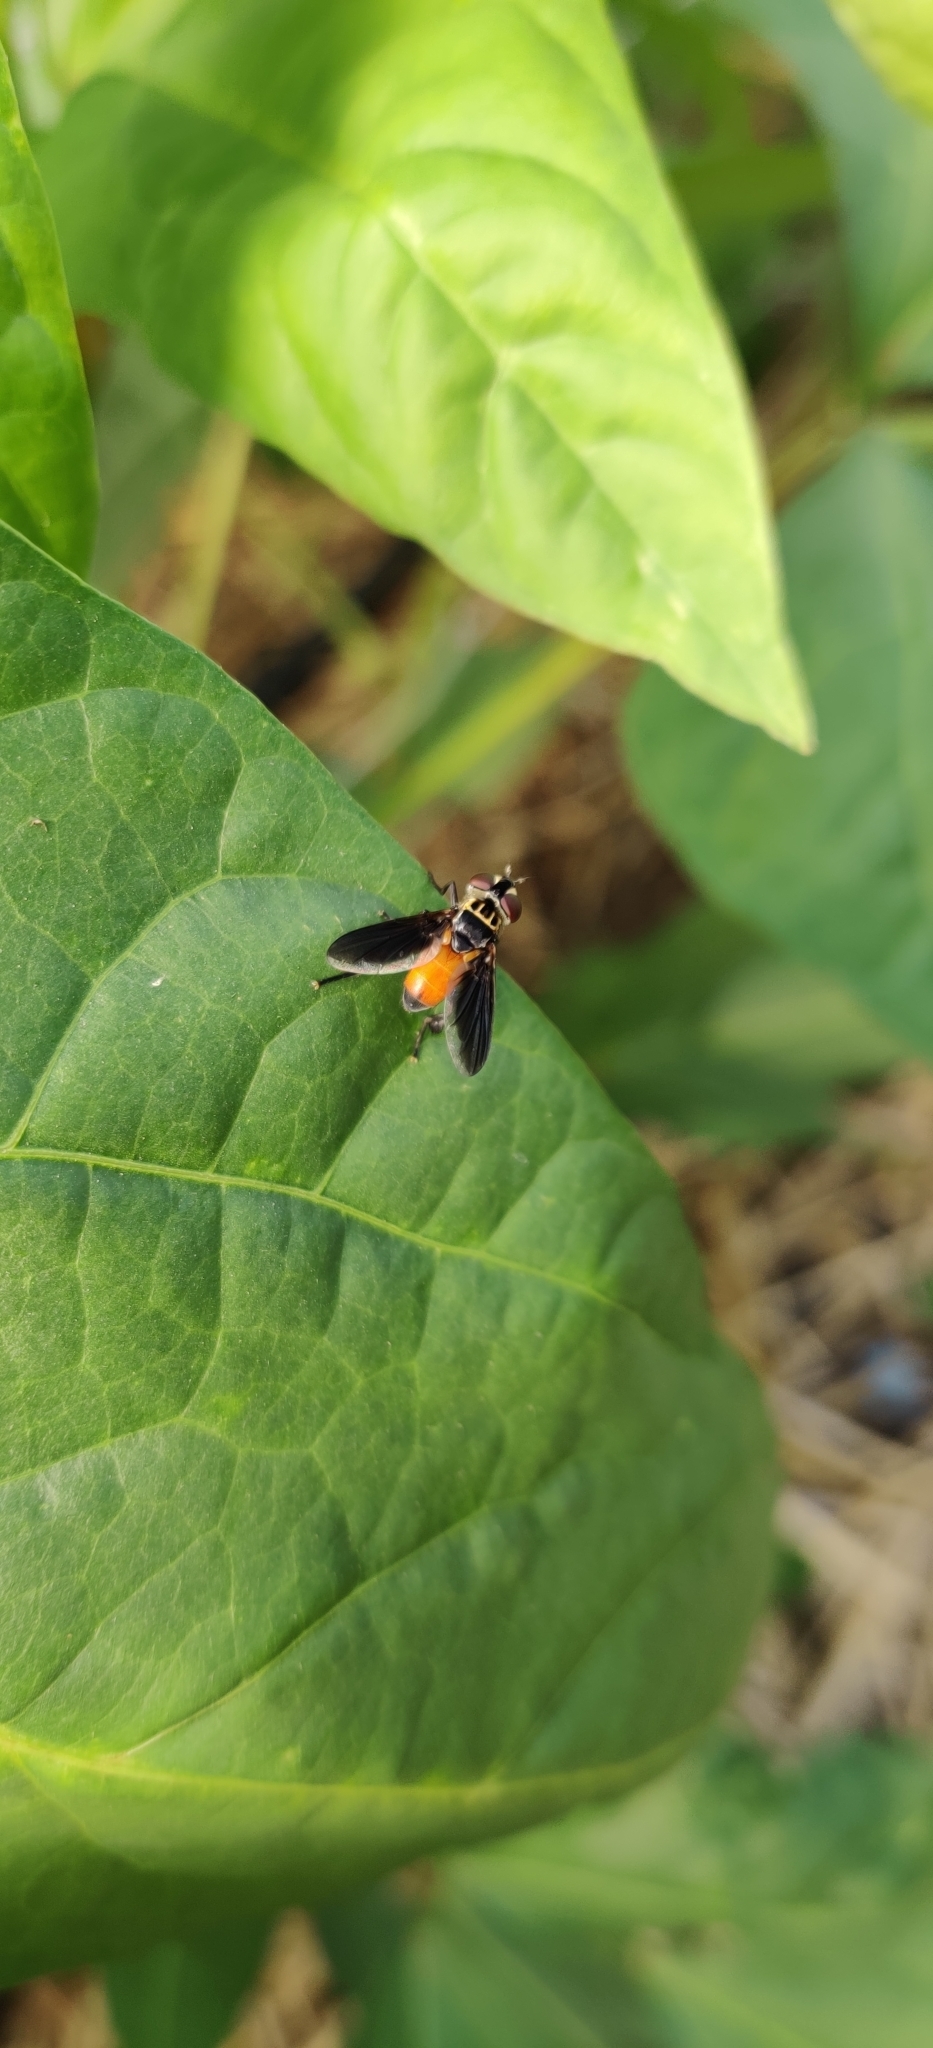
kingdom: Animalia
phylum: Arthropoda
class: Insecta
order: Diptera
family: Tachinidae
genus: Trichopoda
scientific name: Trichopoda pennipes
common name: Tachinid fly
